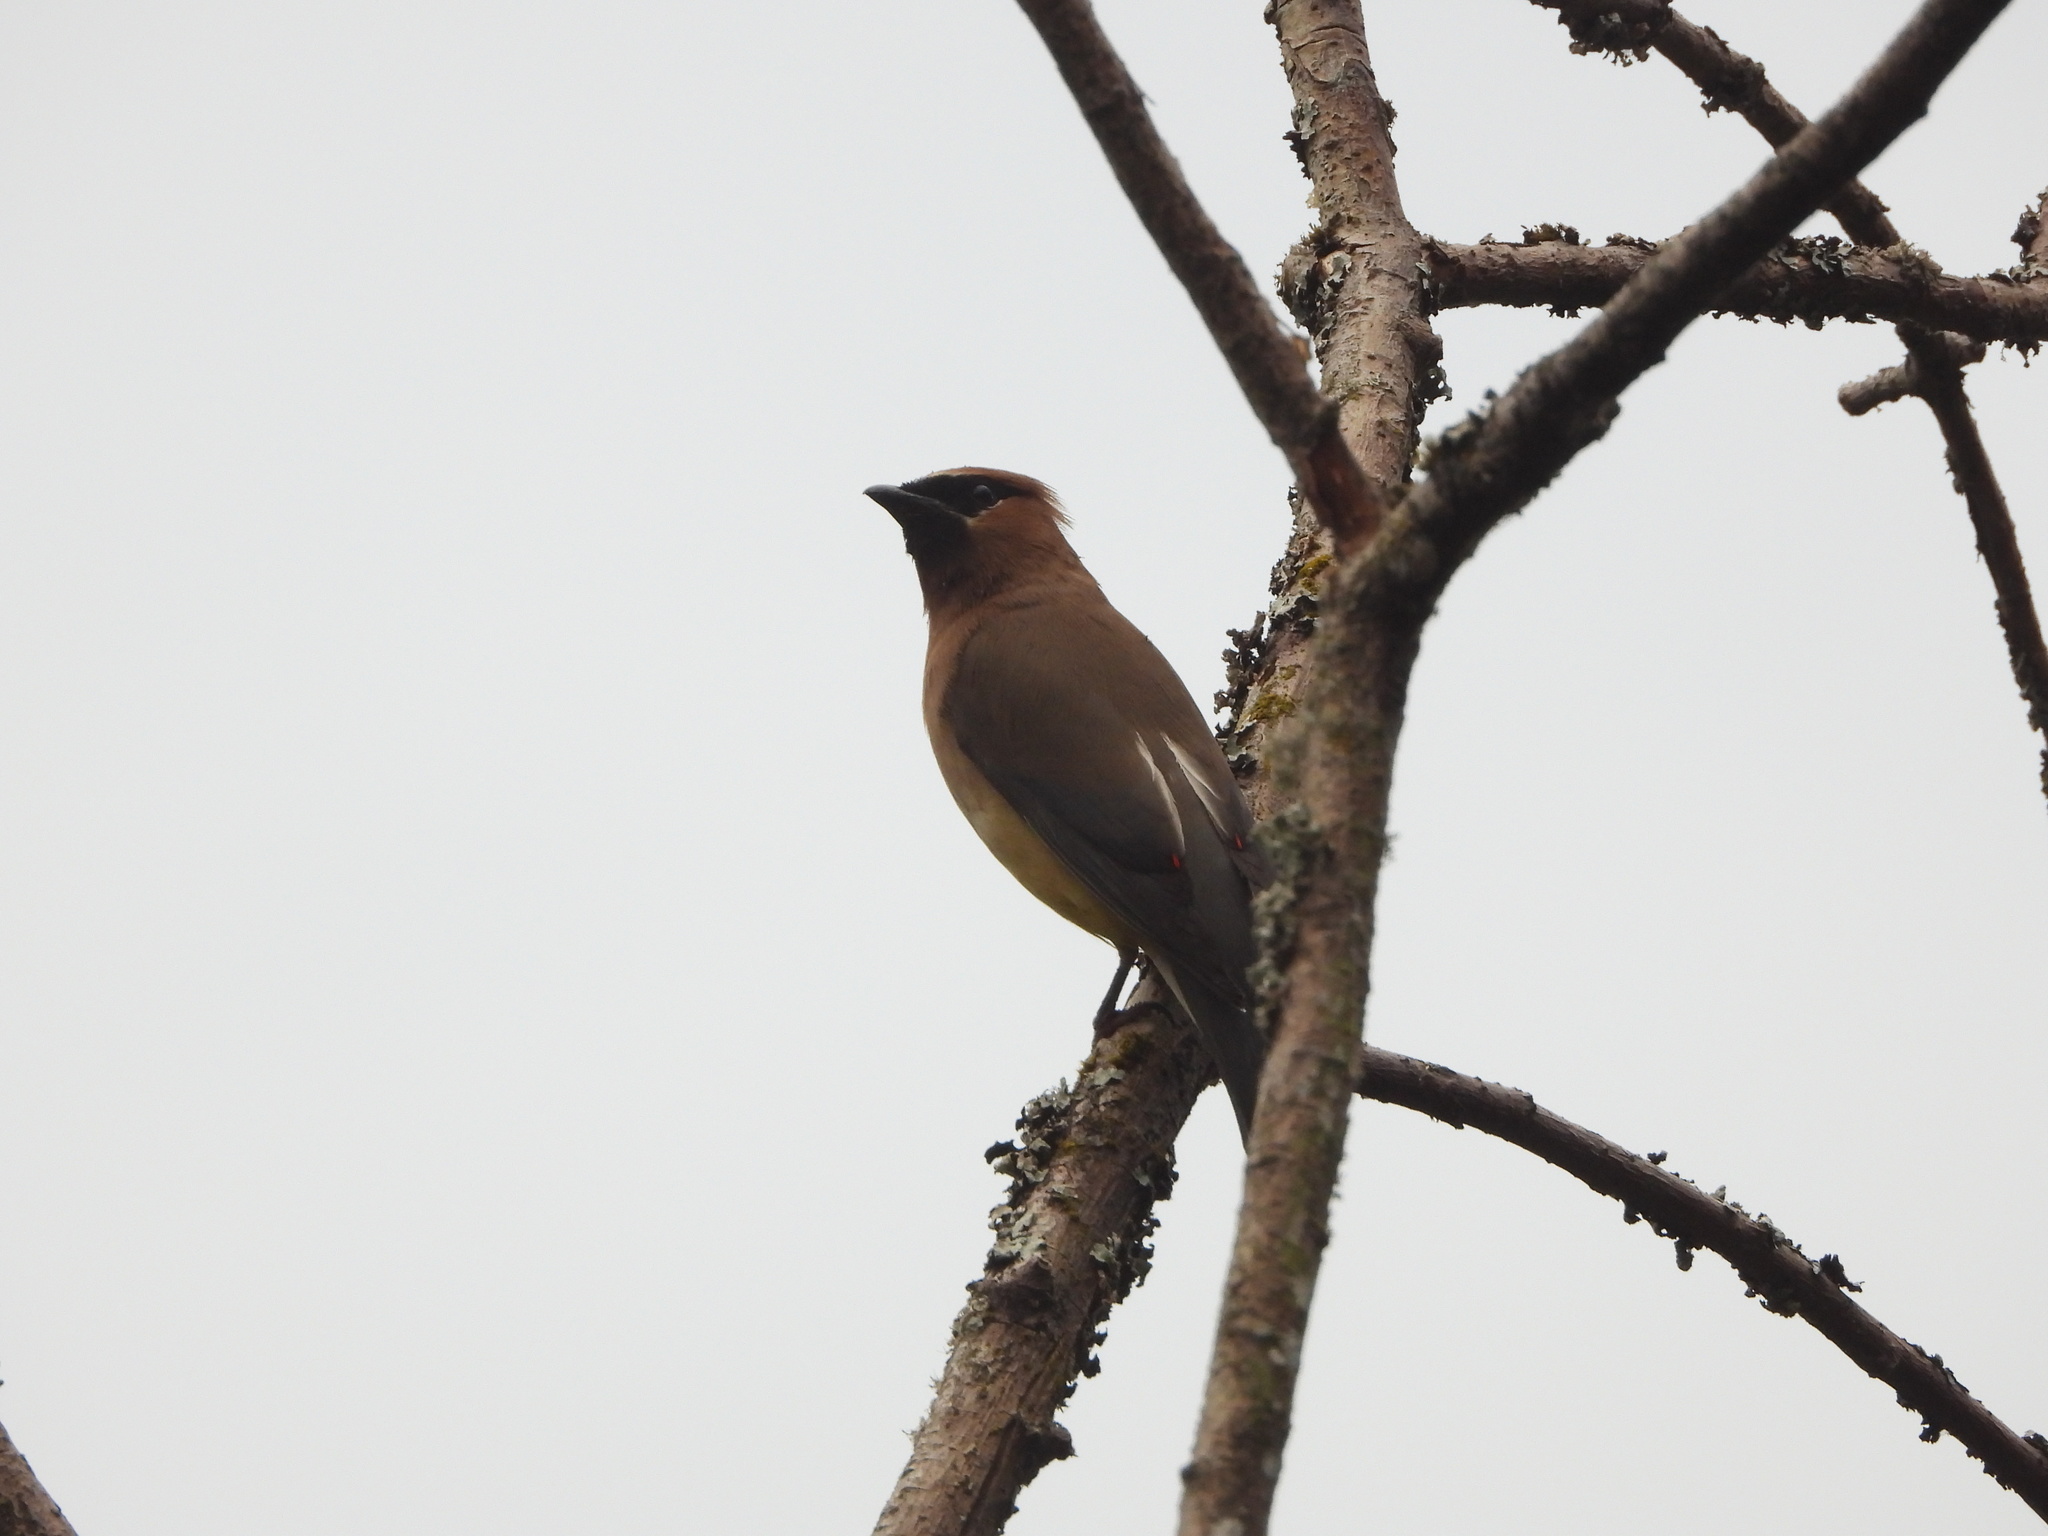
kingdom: Animalia
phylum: Chordata
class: Aves
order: Passeriformes
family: Bombycillidae
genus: Bombycilla
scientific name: Bombycilla cedrorum
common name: Cedar waxwing
